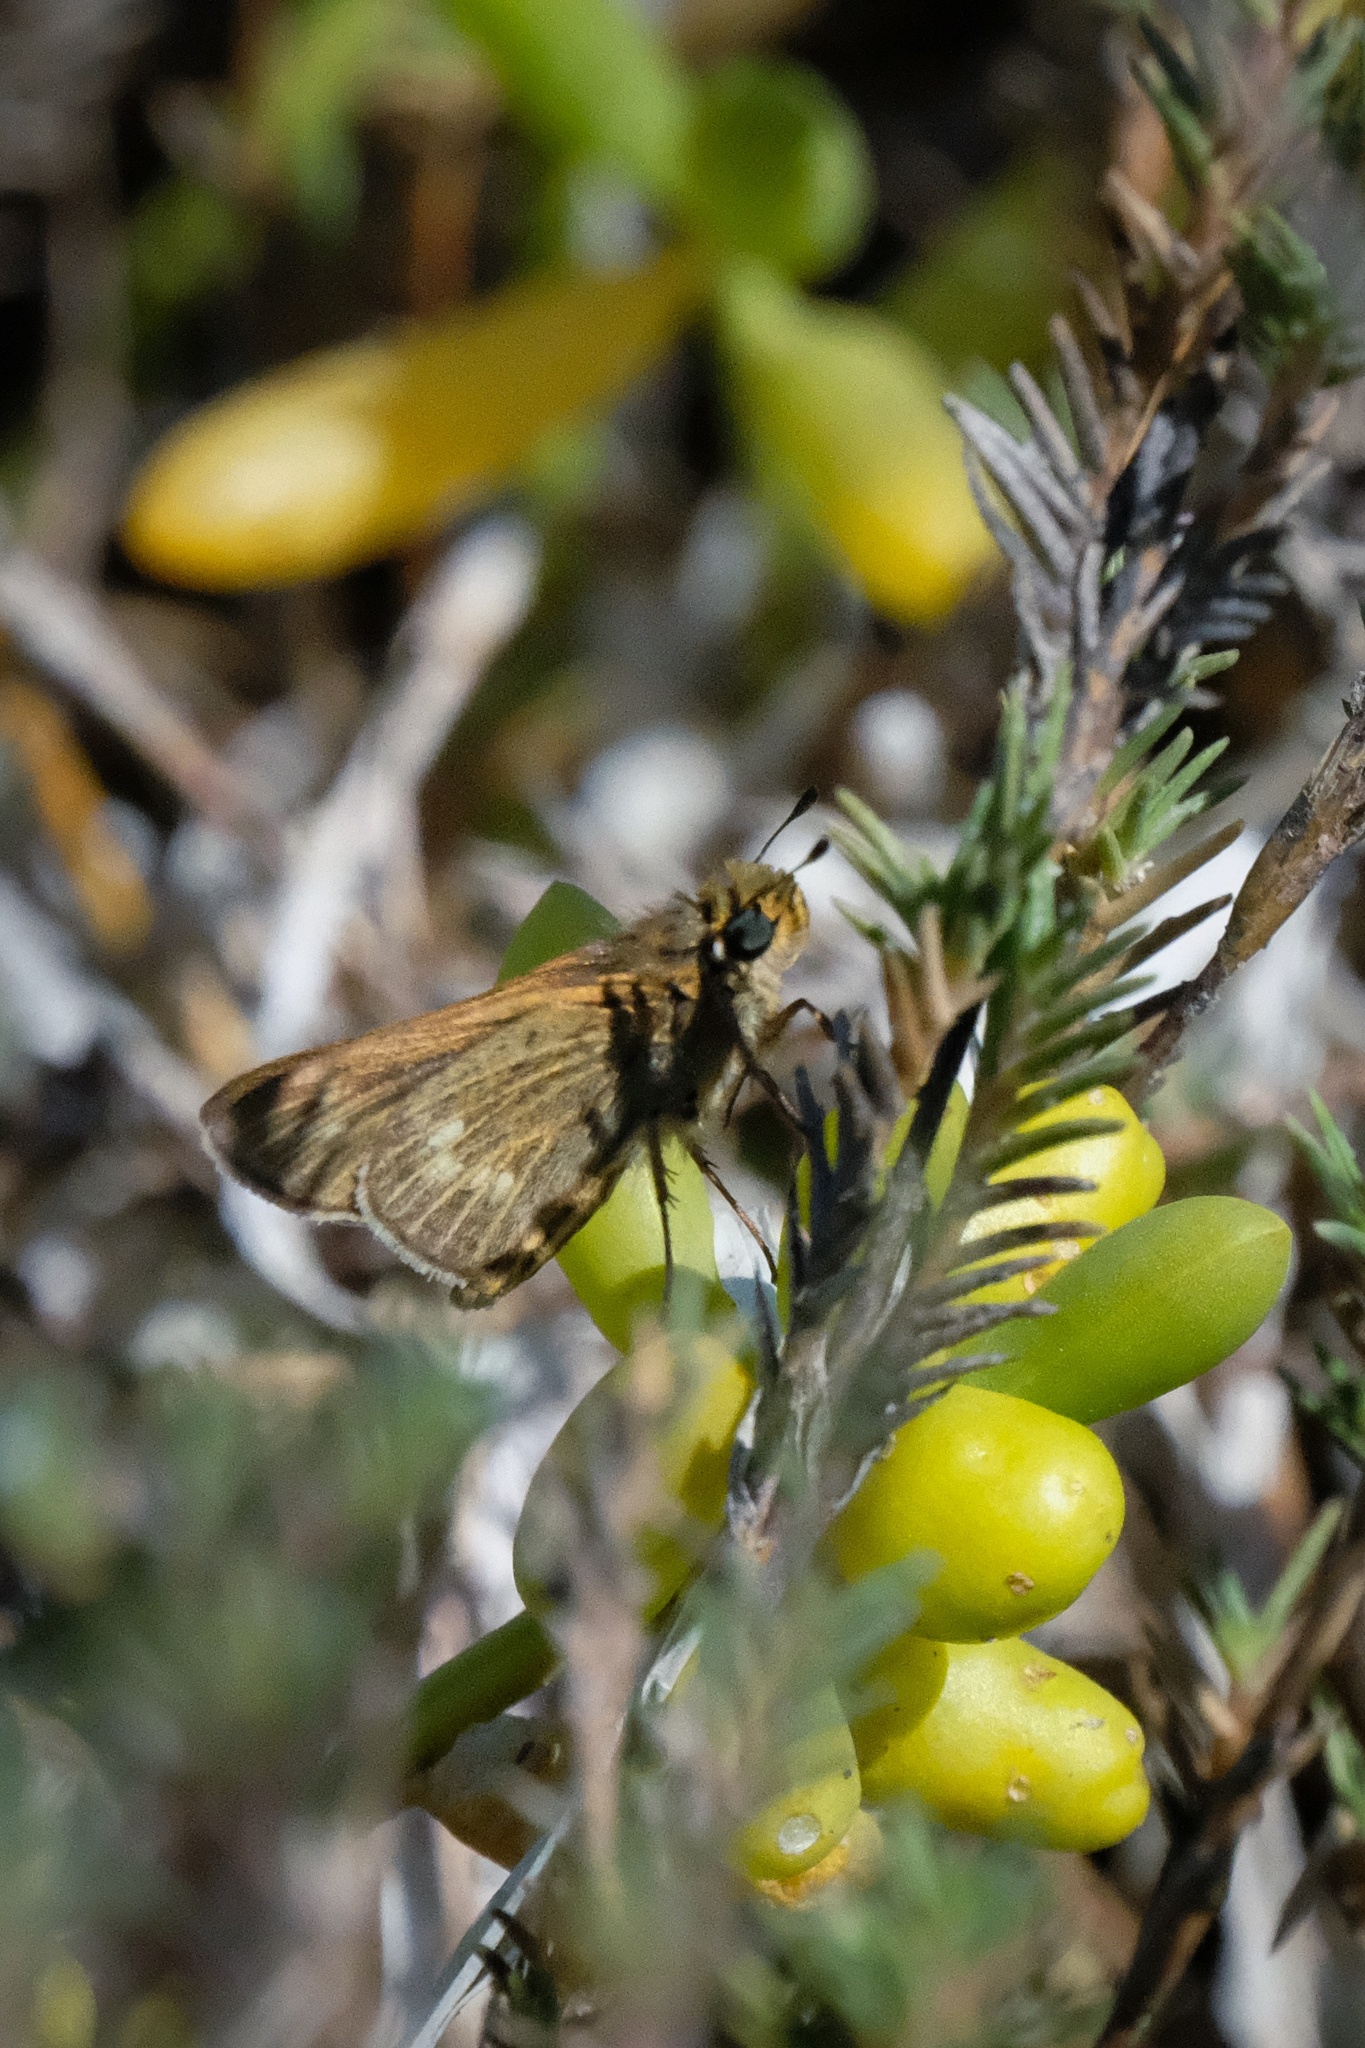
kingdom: Animalia
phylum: Arthropoda
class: Insecta
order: Lepidoptera
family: Hesperiidae
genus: Panoquina
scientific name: Panoquina errans
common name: Wandering skipper
